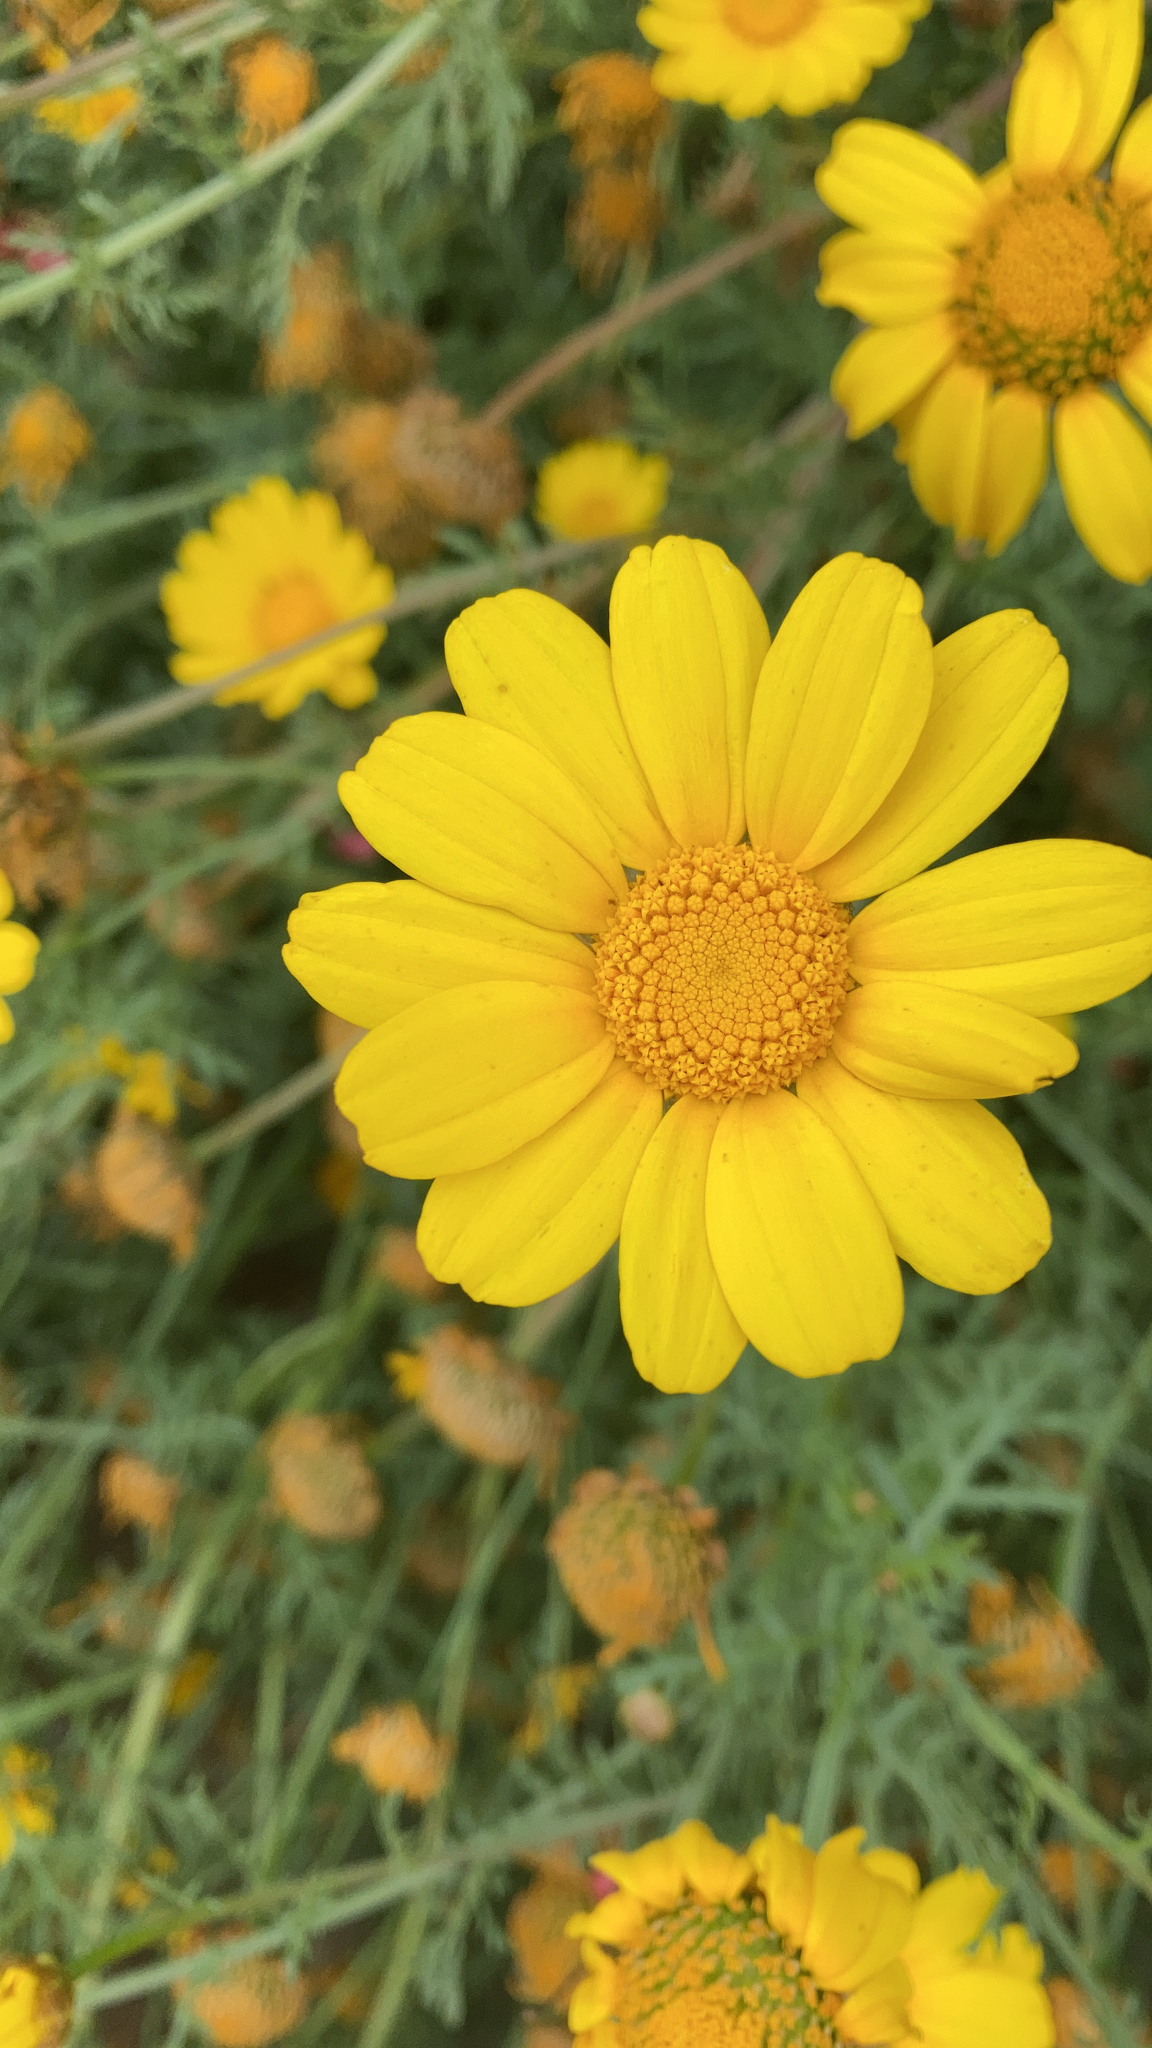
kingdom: Plantae
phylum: Tracheophyta
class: Magnoliopsida
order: Asterales
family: Asteraceae
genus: Glebionis
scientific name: Glebionis coronaria
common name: Crowndaisy
